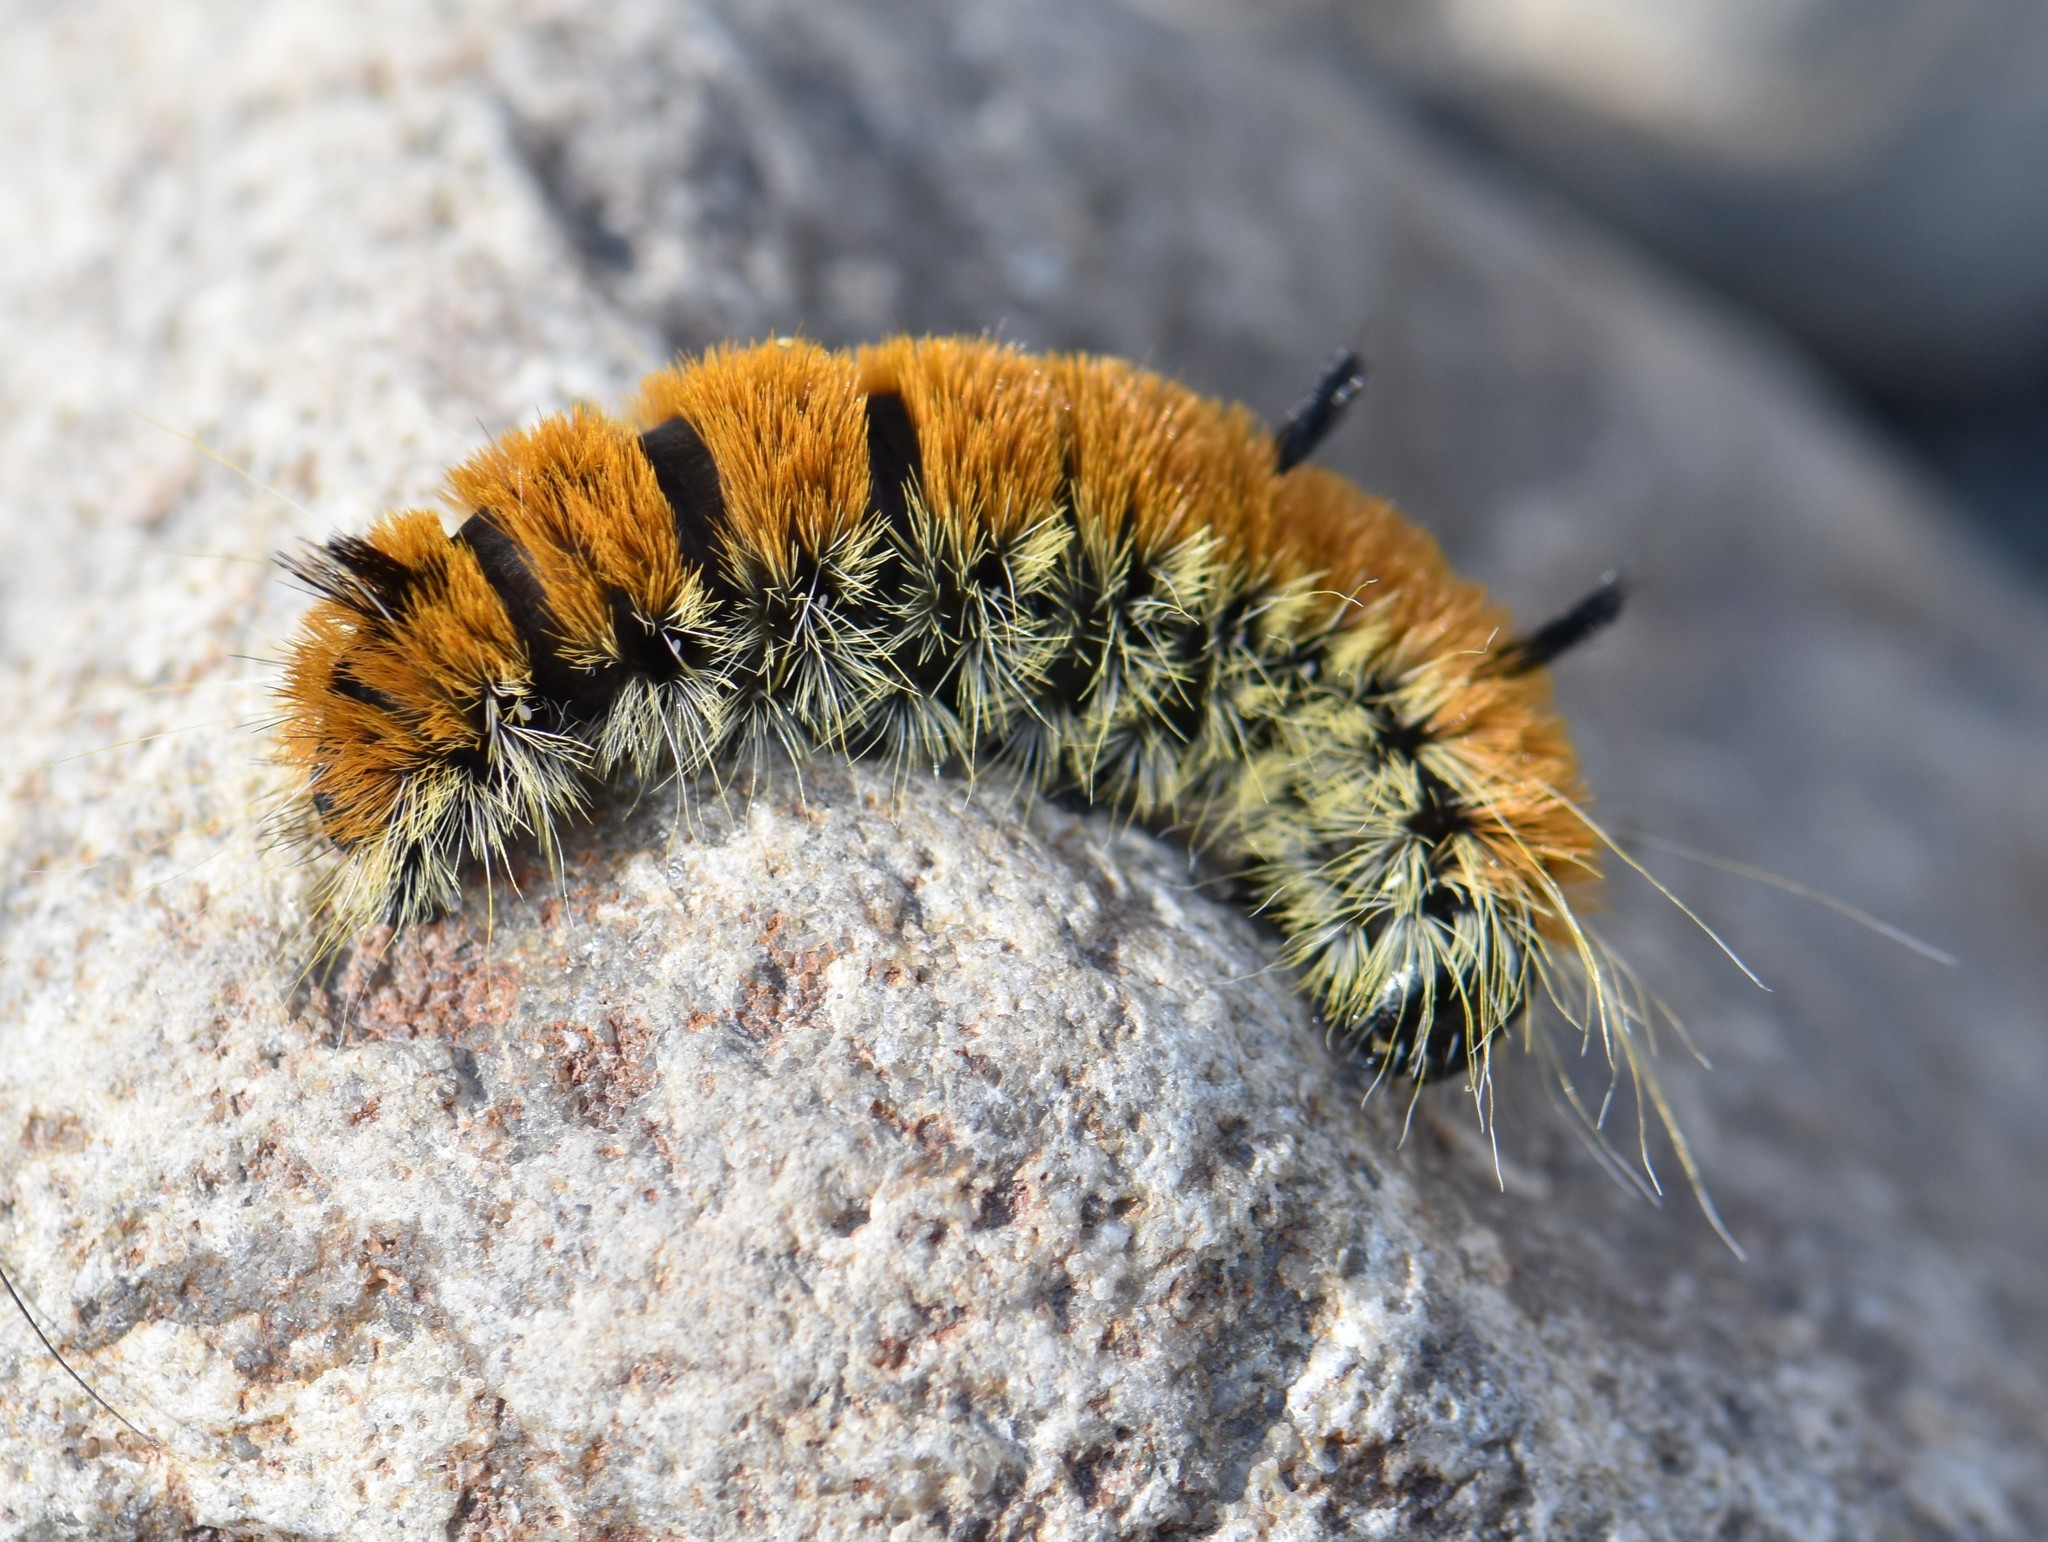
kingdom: Animalia
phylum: Arthropoda
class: Insecta
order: Lepidoptera
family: Noctuidae
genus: Acronicta
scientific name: Acronicta insita
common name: Large gray dagger
